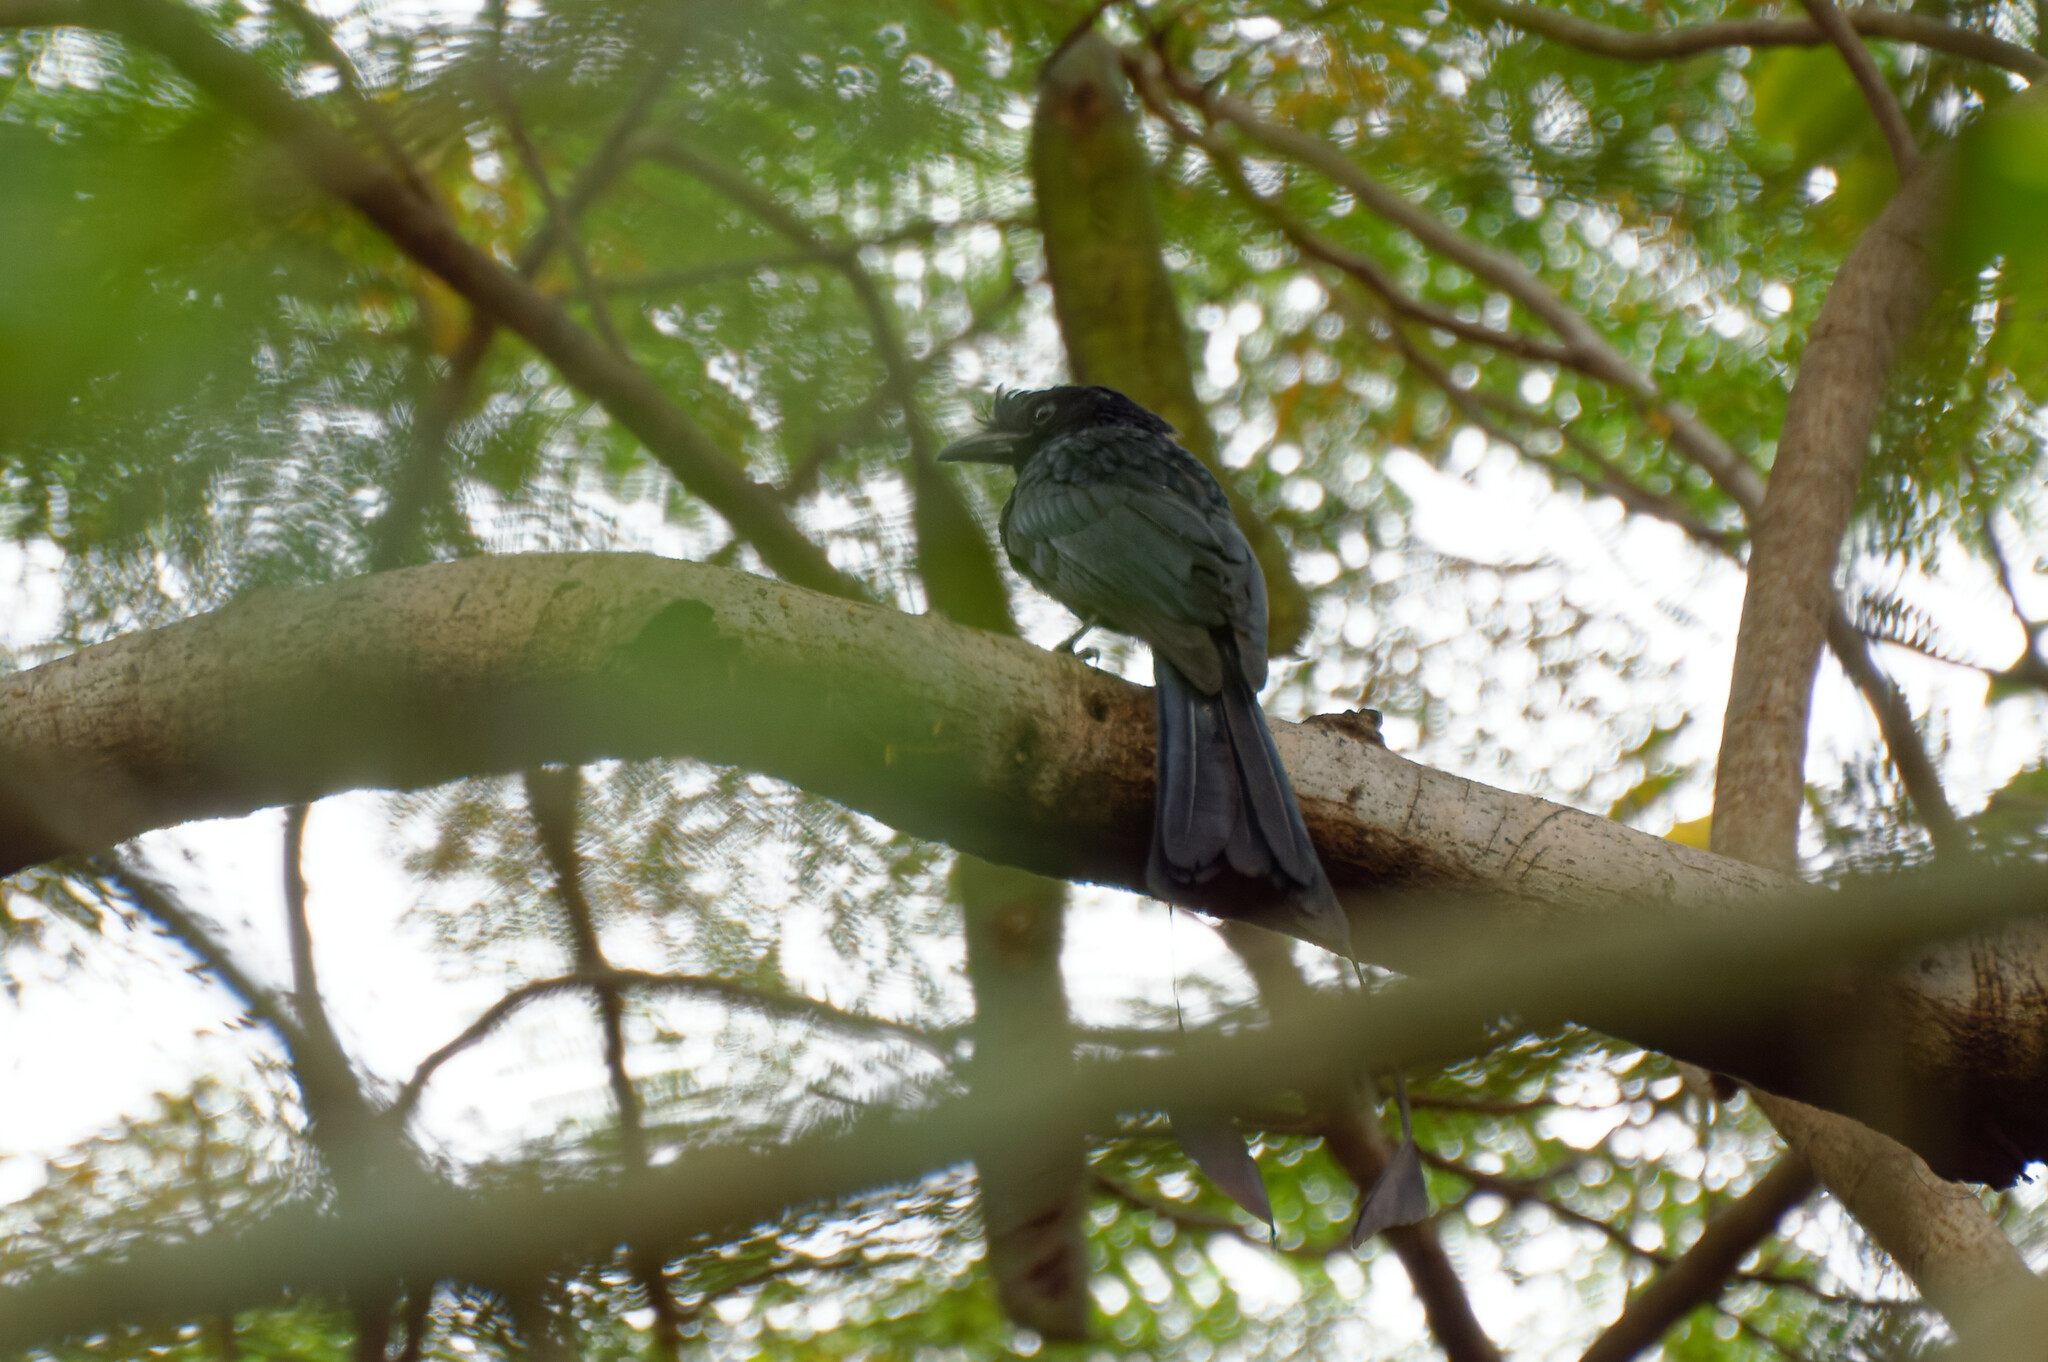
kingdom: Animalia
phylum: Chordata
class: Aves
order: Passeriformes
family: Dicruridae
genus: Dicrurus
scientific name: Dicrurus paradiseus
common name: Greater racket-tailed drongo
